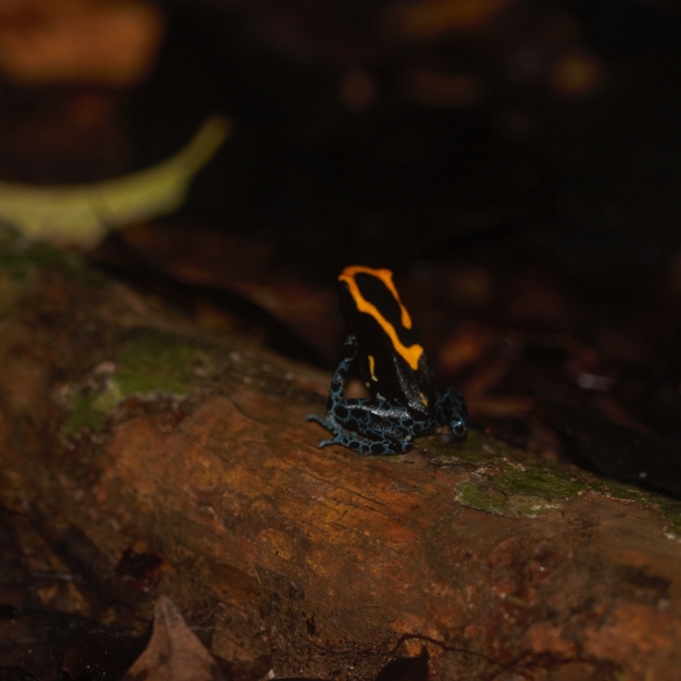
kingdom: Animalia
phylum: Chordata
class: Amphibia
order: Anura
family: Dendrobatidae
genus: Dendrobates
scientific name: Dendrobates tinctorius
